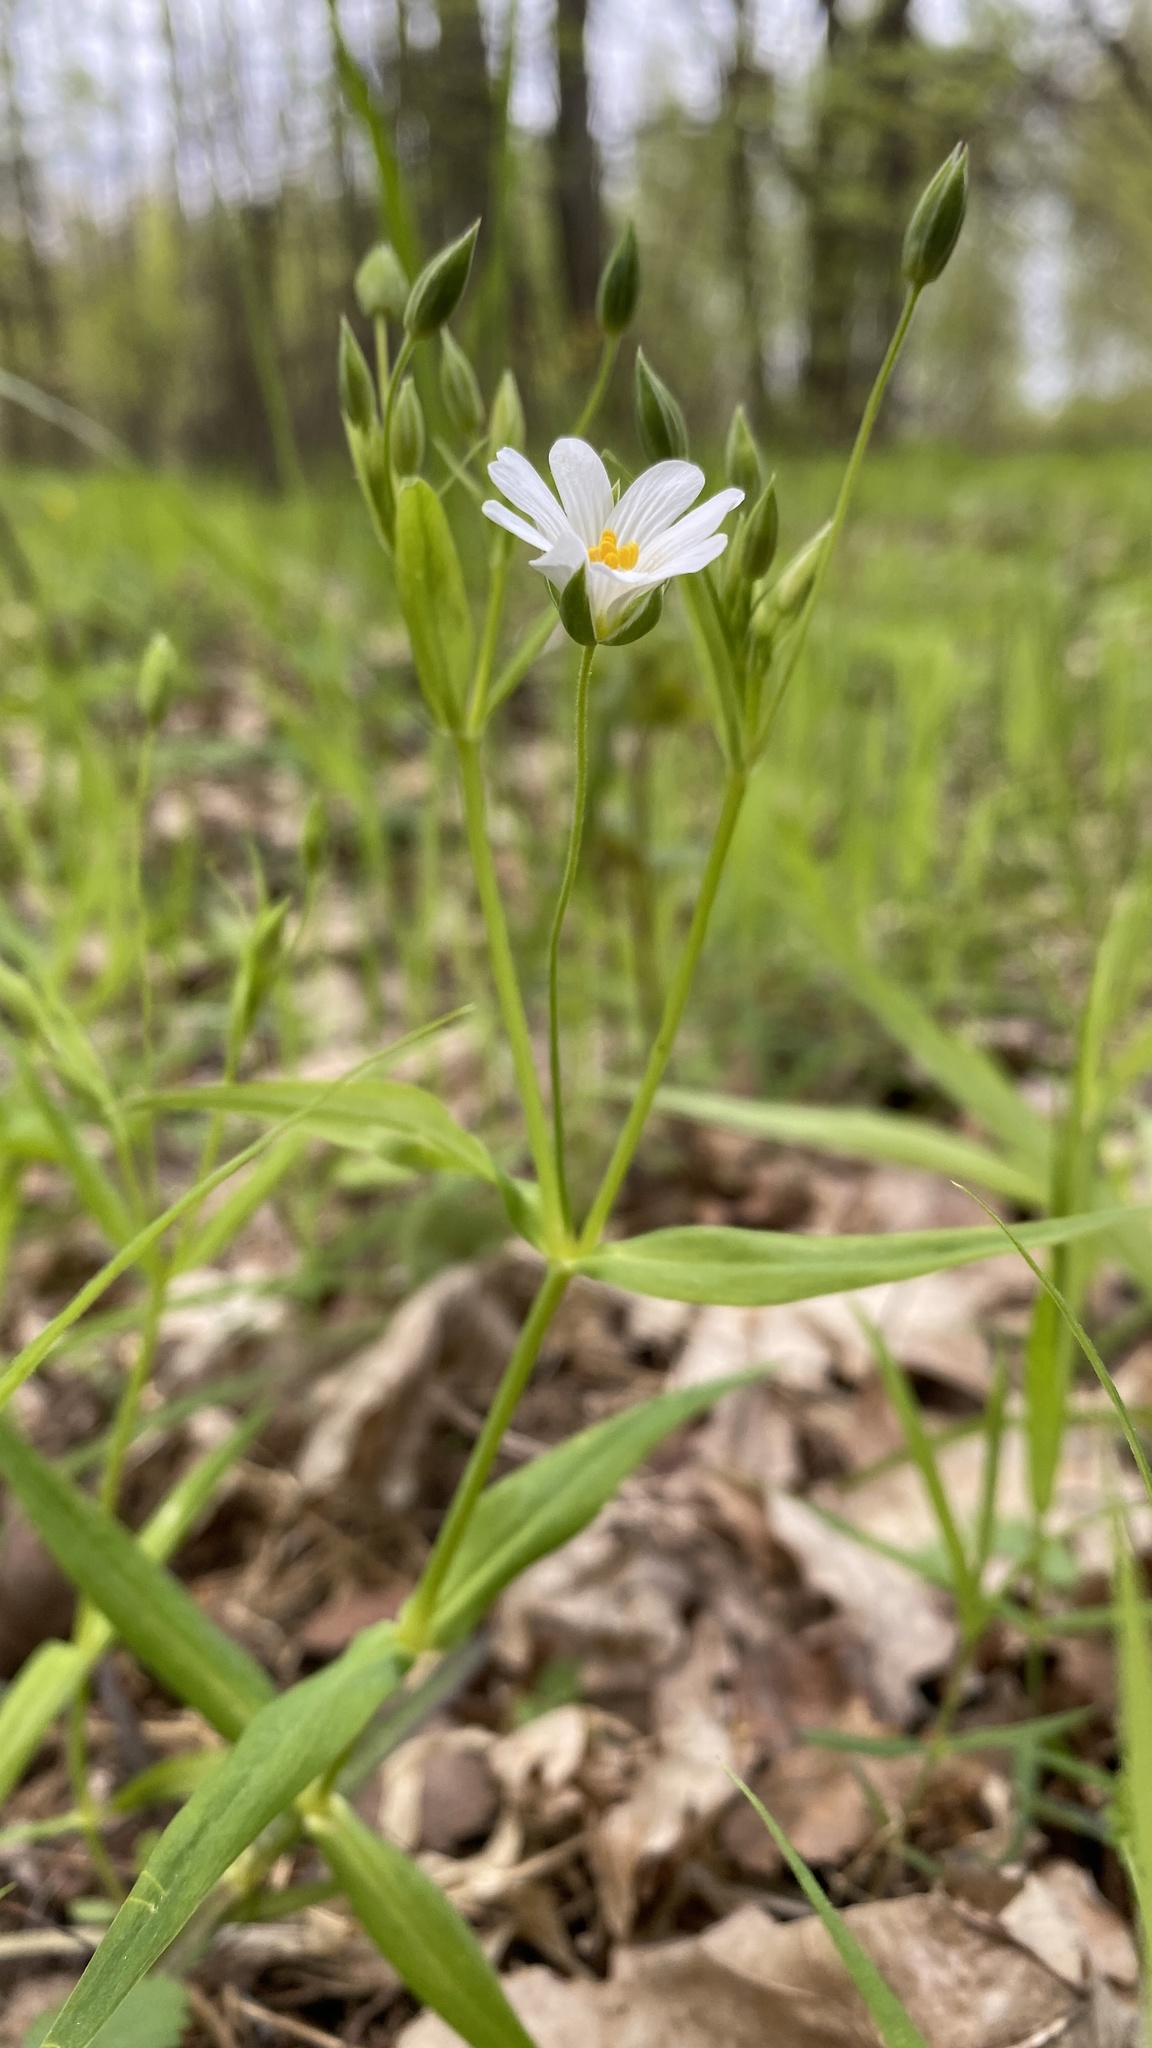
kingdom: Plantae
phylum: Tracheophyta
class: Magnoliopsida
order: Caryophyllales
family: Caryophyllaceae
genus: Rabelera
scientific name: Rabelera holostea
